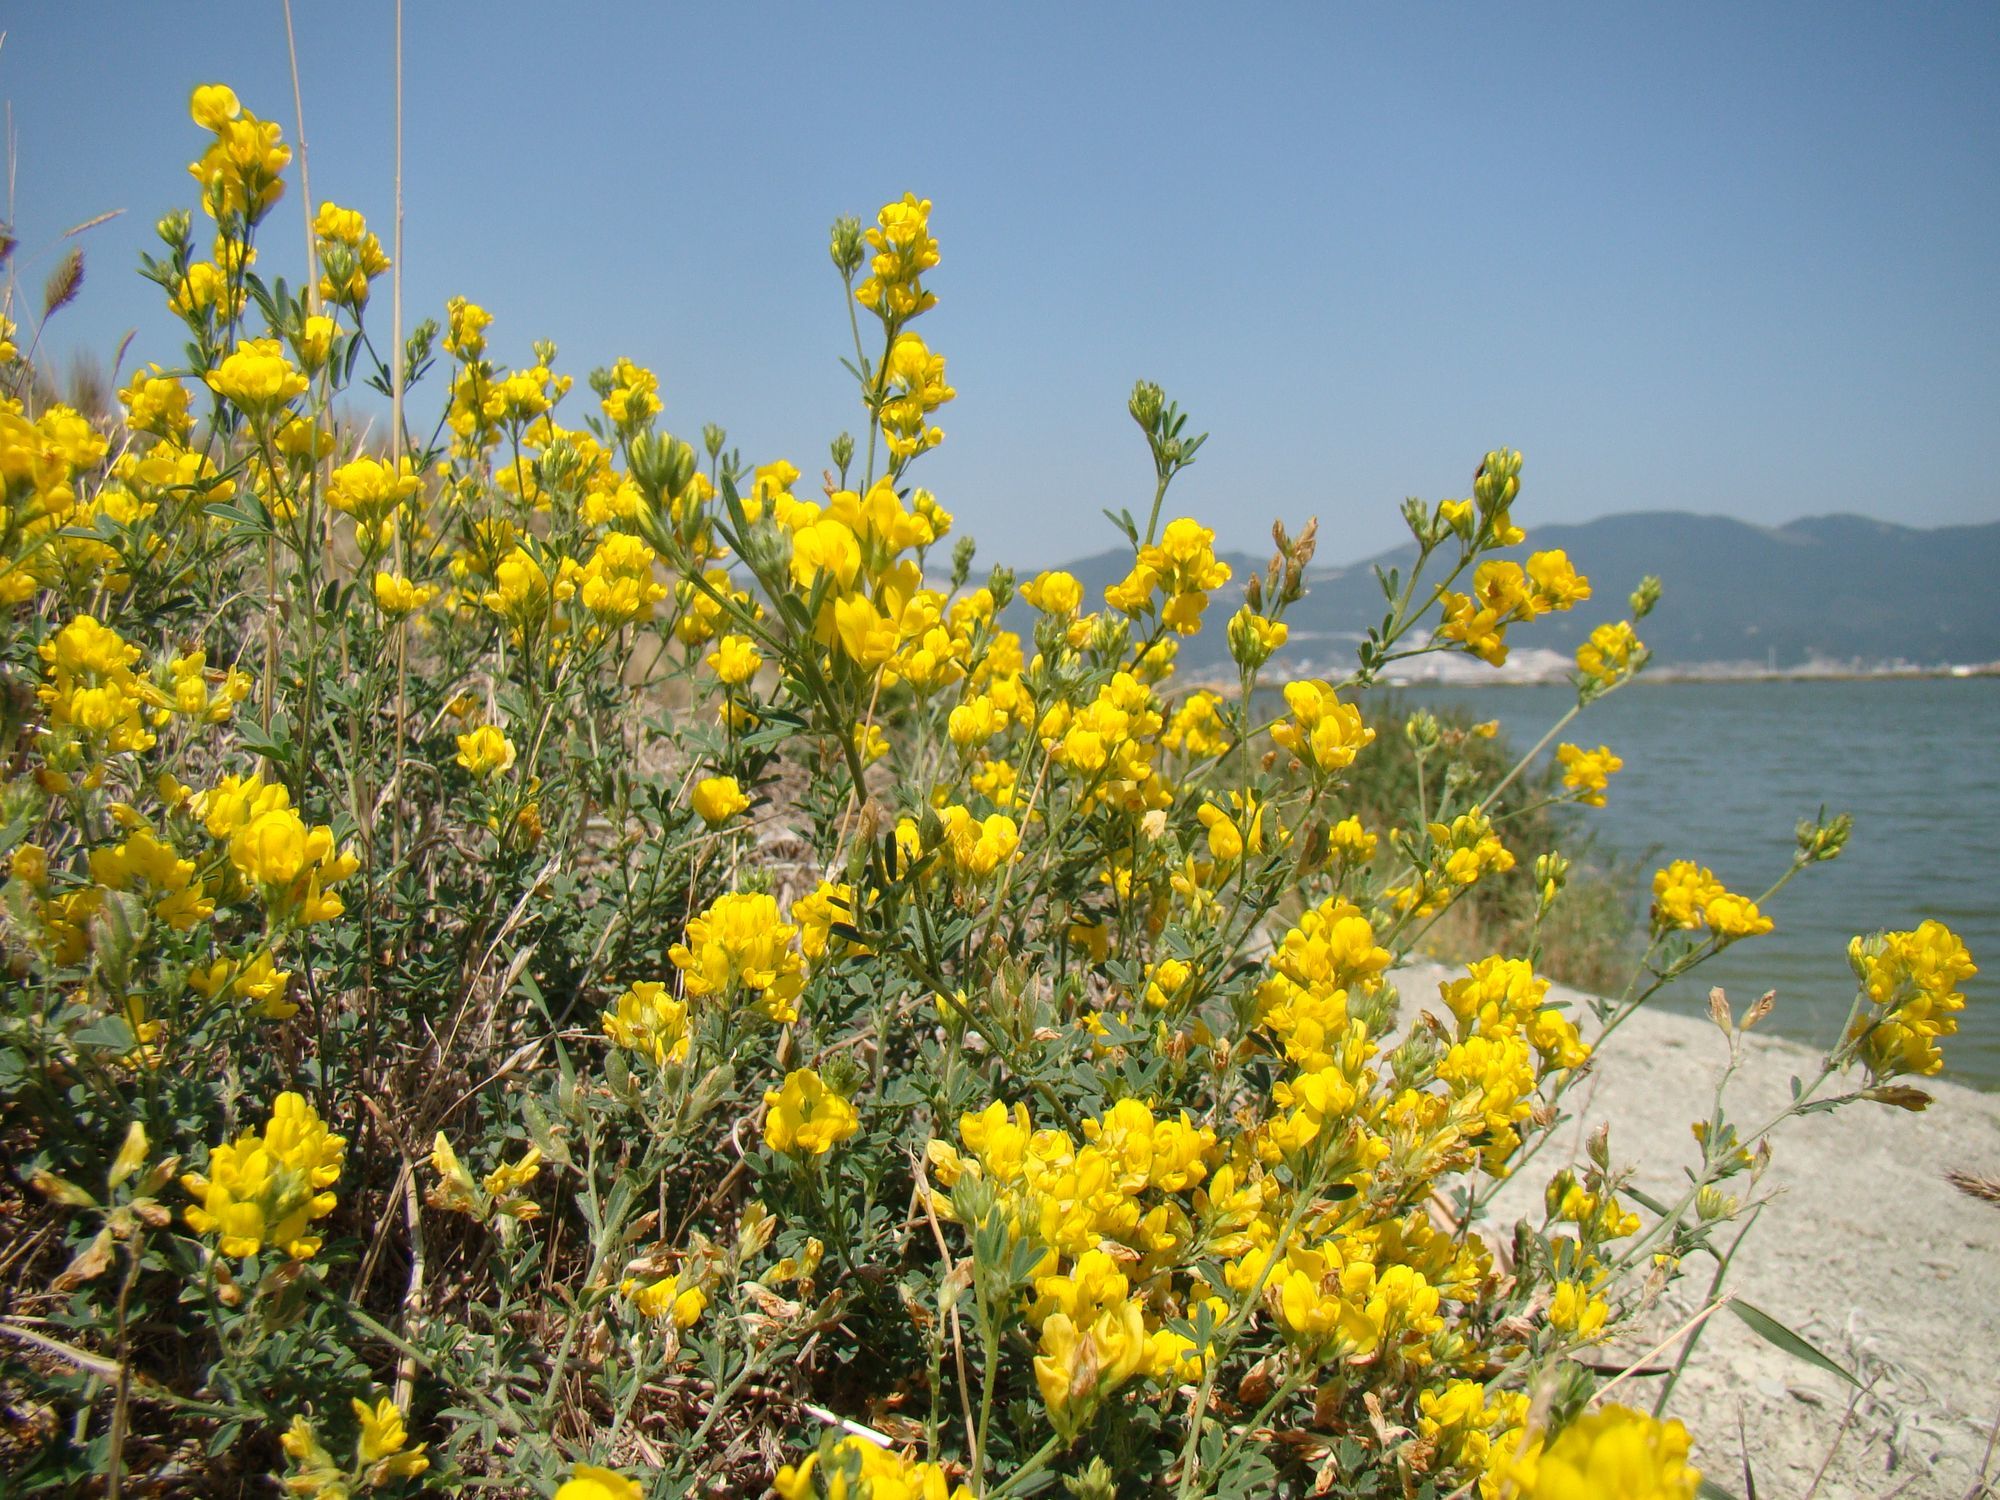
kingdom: Plantae
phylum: Tracheophyta
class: Magnoliopsida
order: Fabales
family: Fabaceae
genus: Medicago
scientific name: Medicago falcata
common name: Sickle medick
